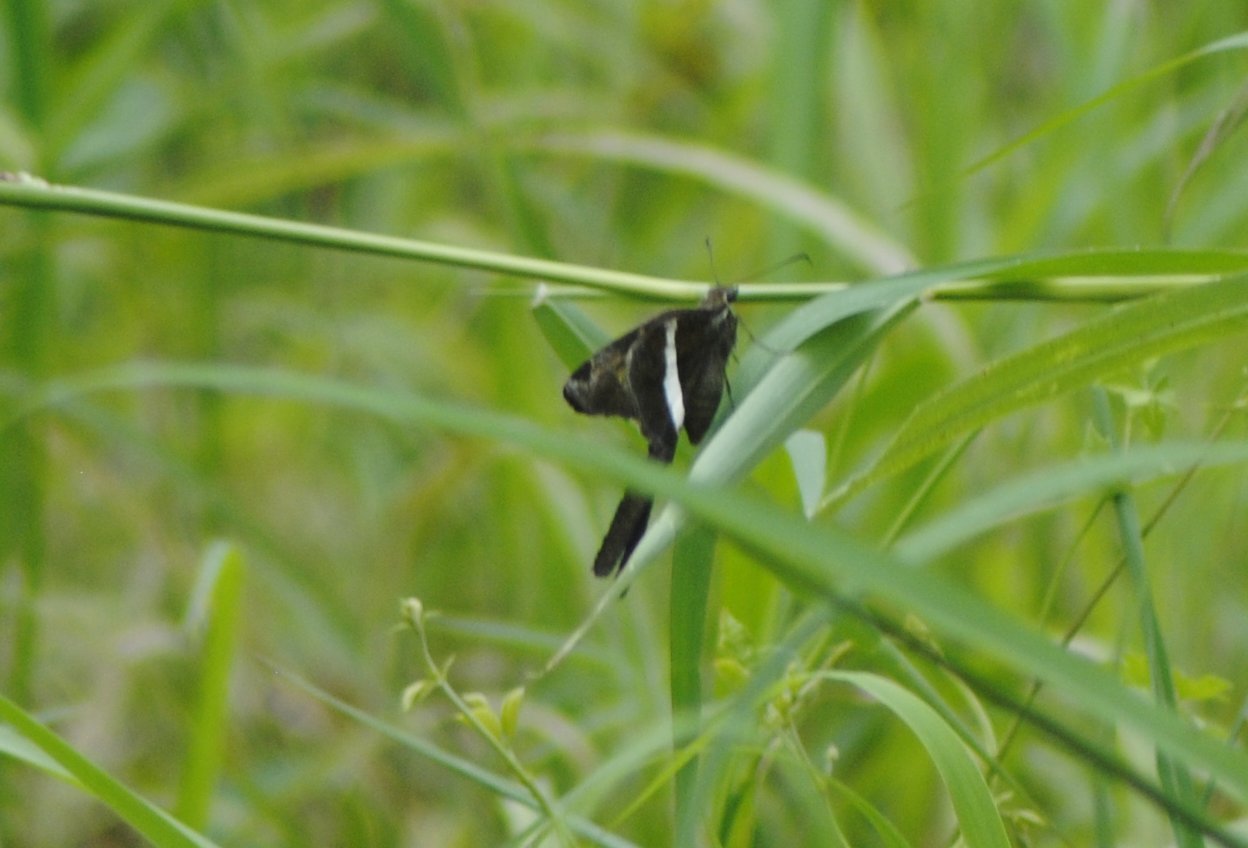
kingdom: Animalia
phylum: Arthropoda
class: Insecta
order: Lepidoptera
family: Hesperiidae
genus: Chioides
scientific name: Chioides catillus
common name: Silverbanded skipper
